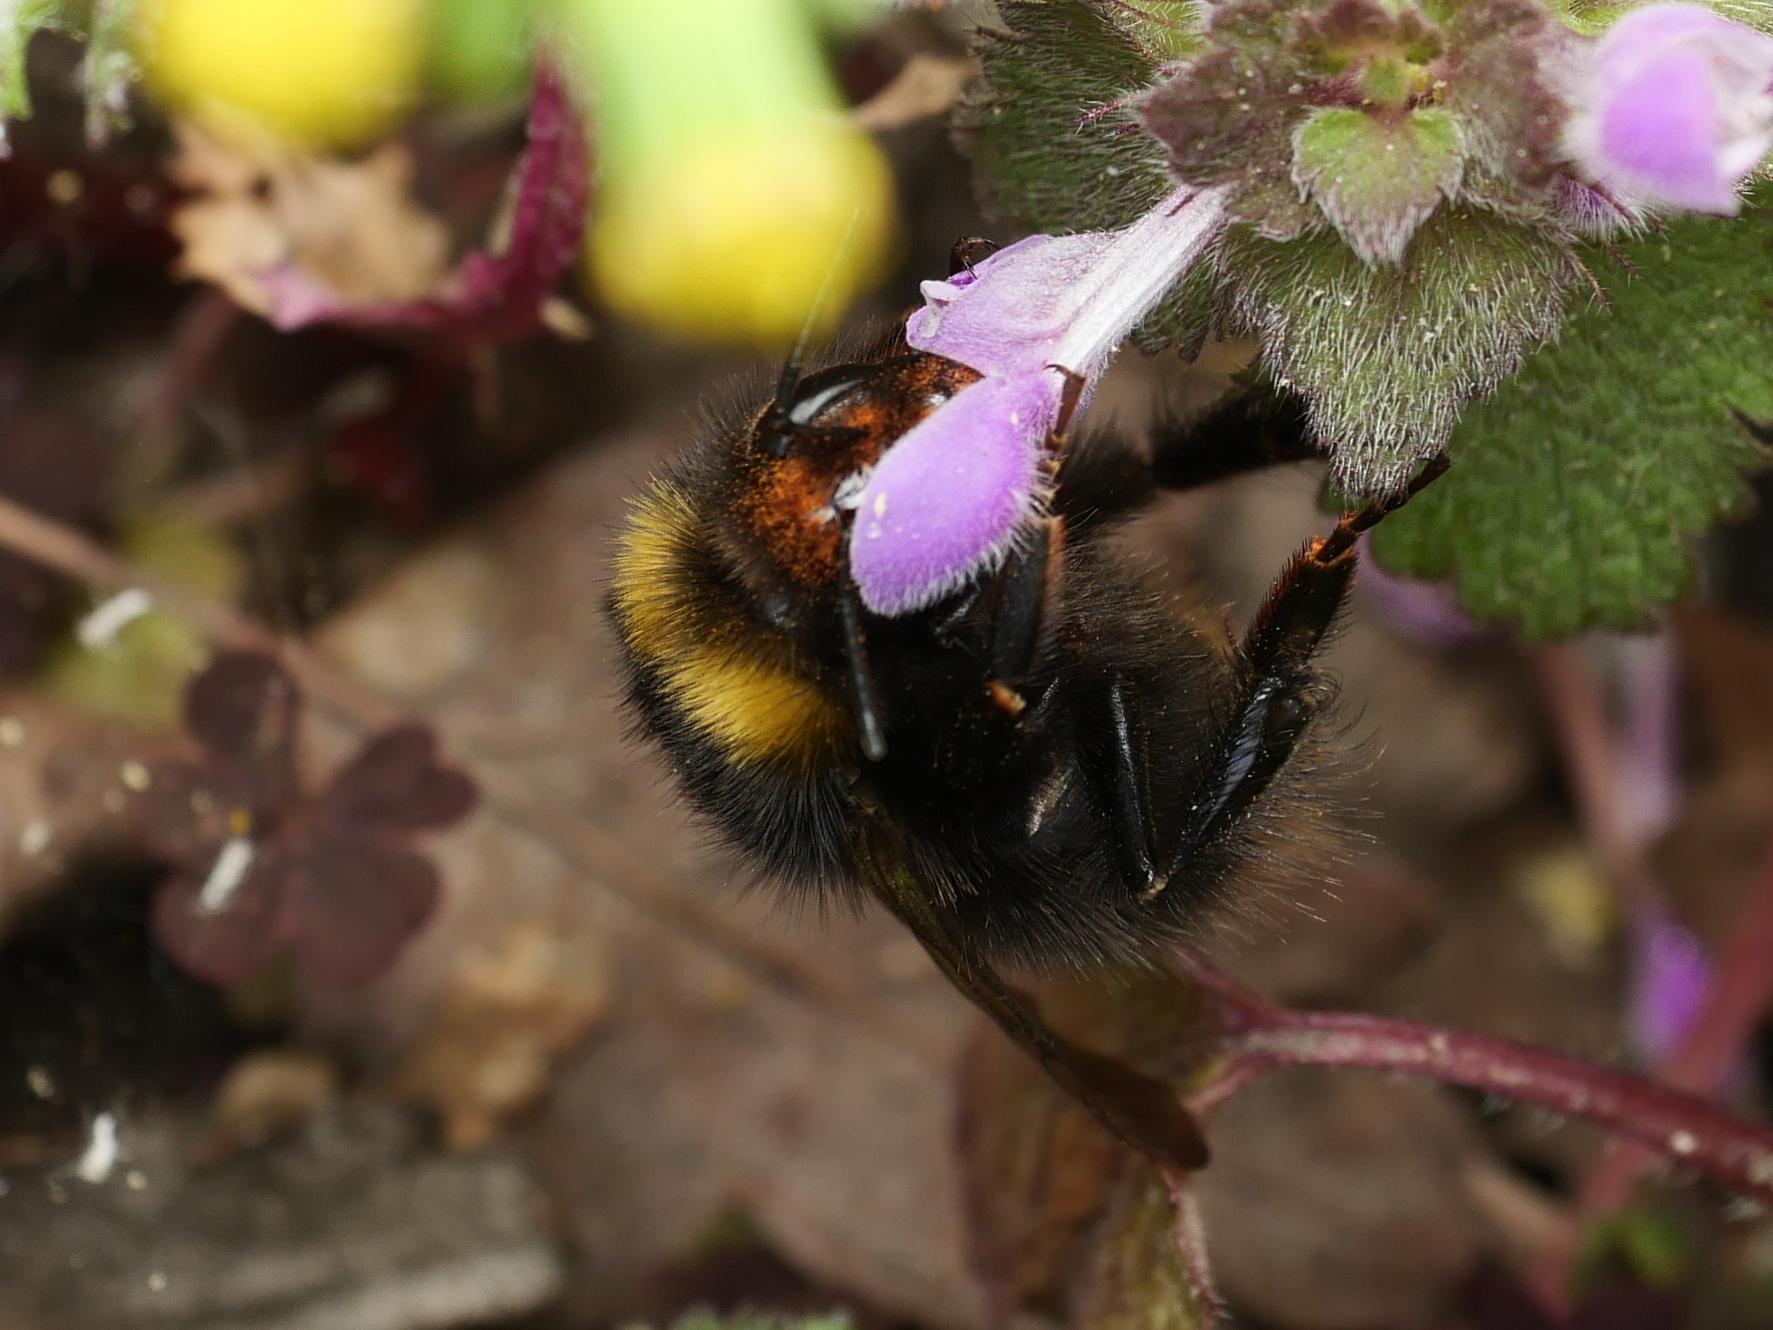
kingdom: Animalia
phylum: Arthropoda
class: Insecta
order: Hymenoptera
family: Apidae
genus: Bombus
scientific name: Bombus pratorum
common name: Early humble-bee
